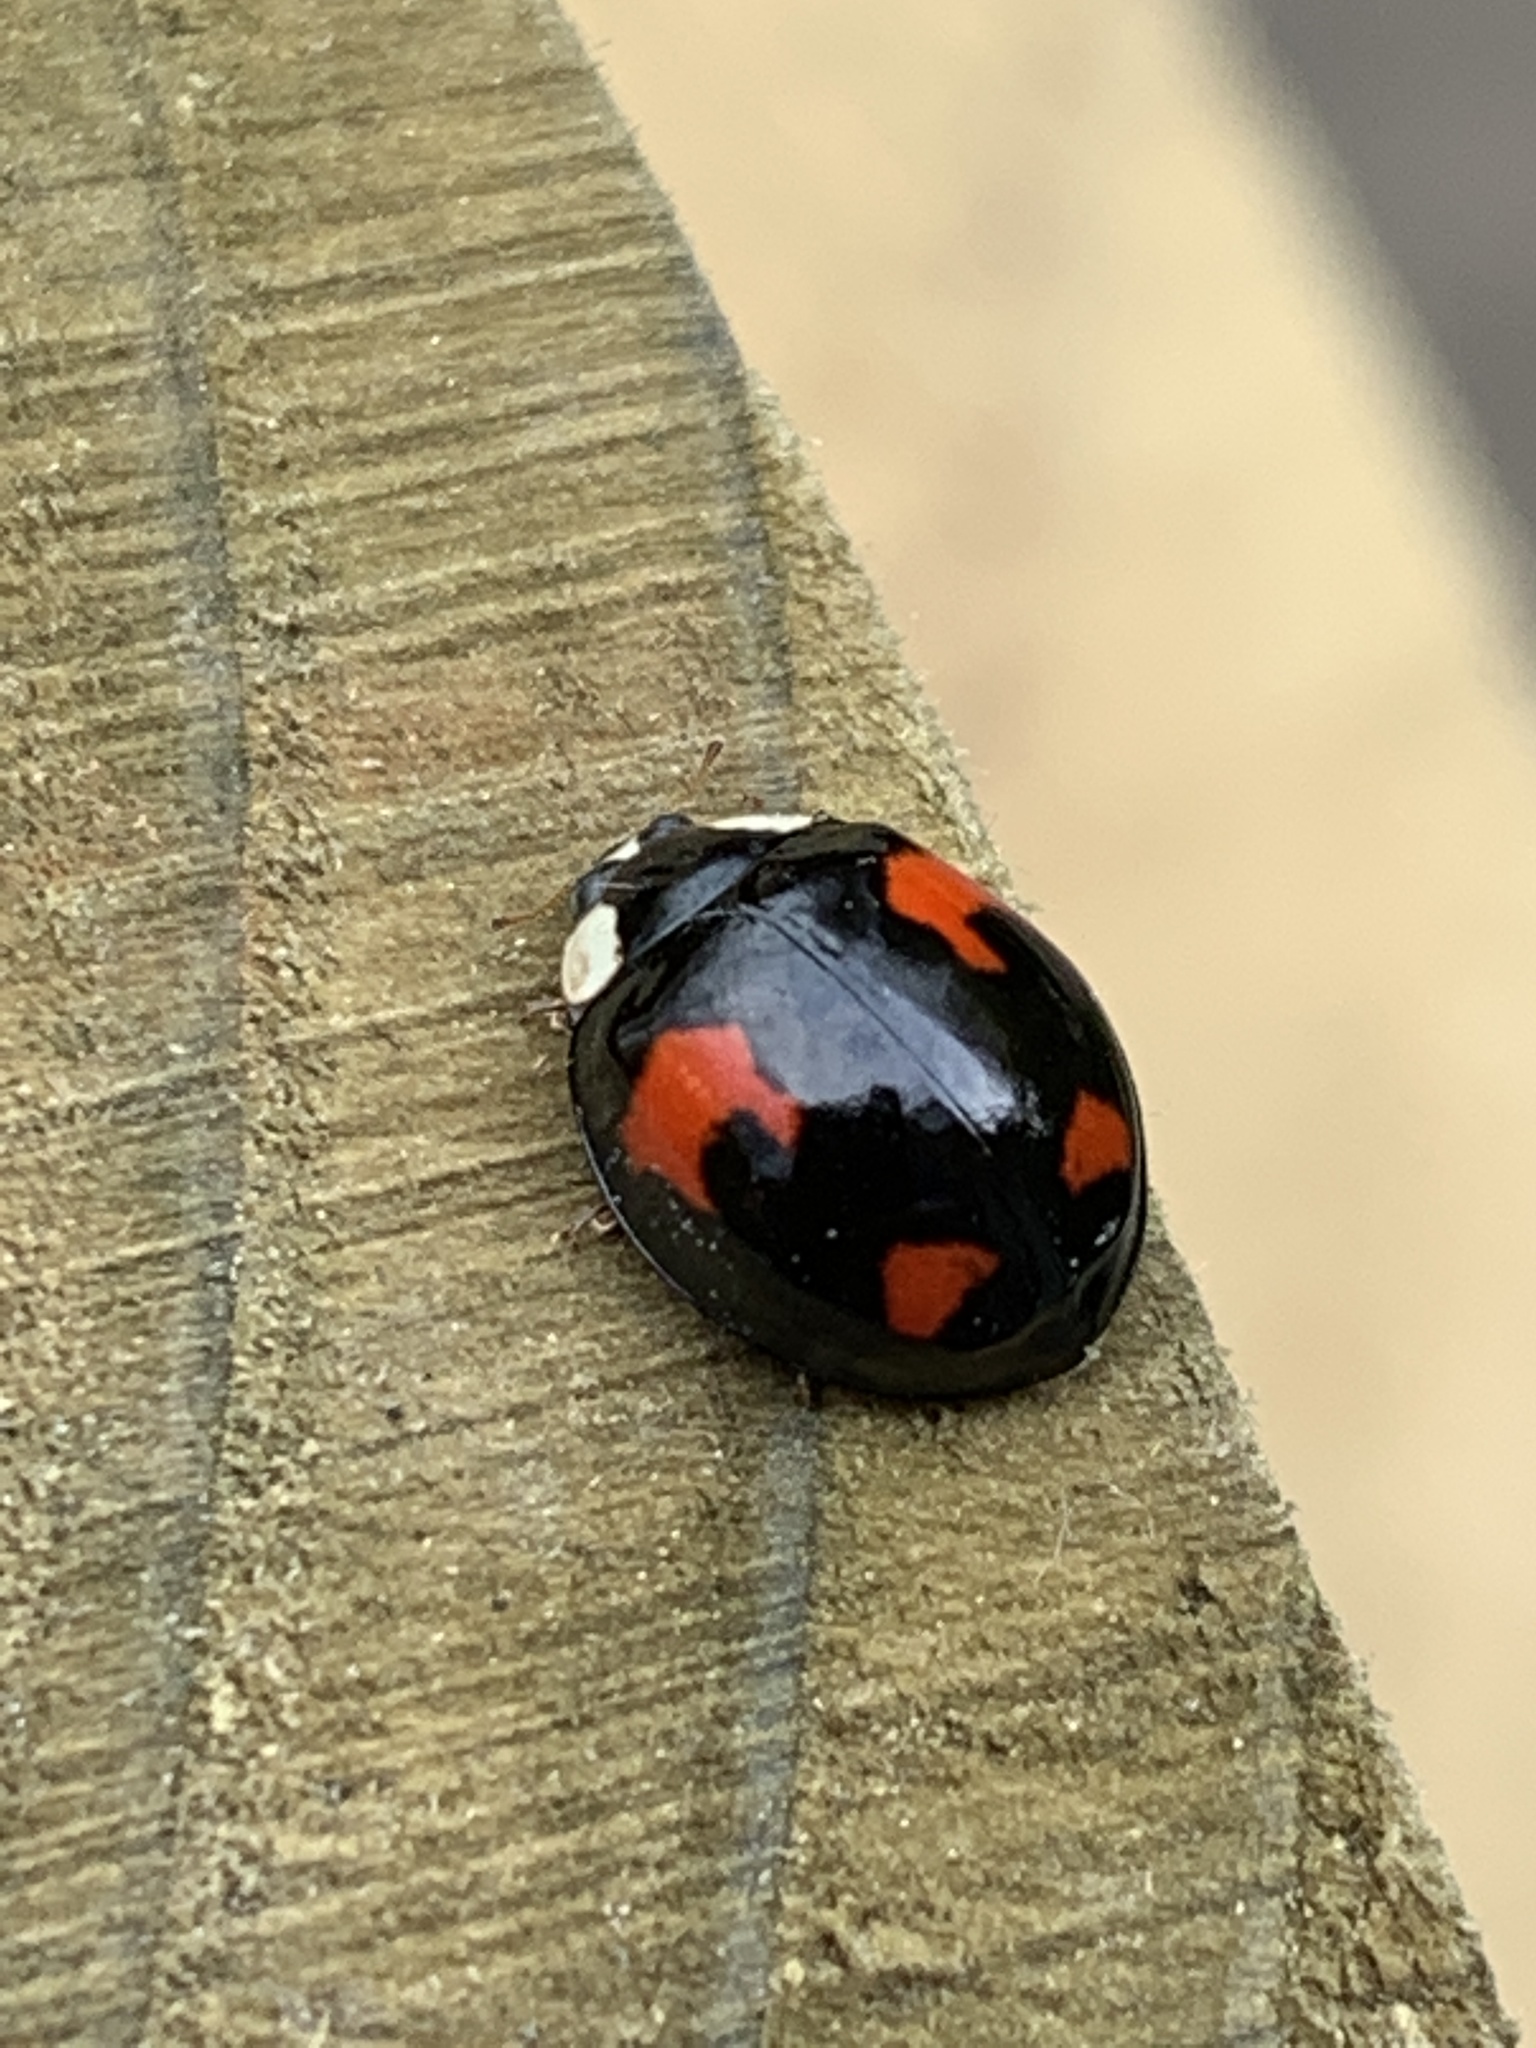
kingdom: Animalia
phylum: Arthropoda
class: Insecta
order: Coleoptera
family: Coccinellidae
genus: Harmonia
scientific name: Harmonia axyridis
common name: Harlequin ladybird
